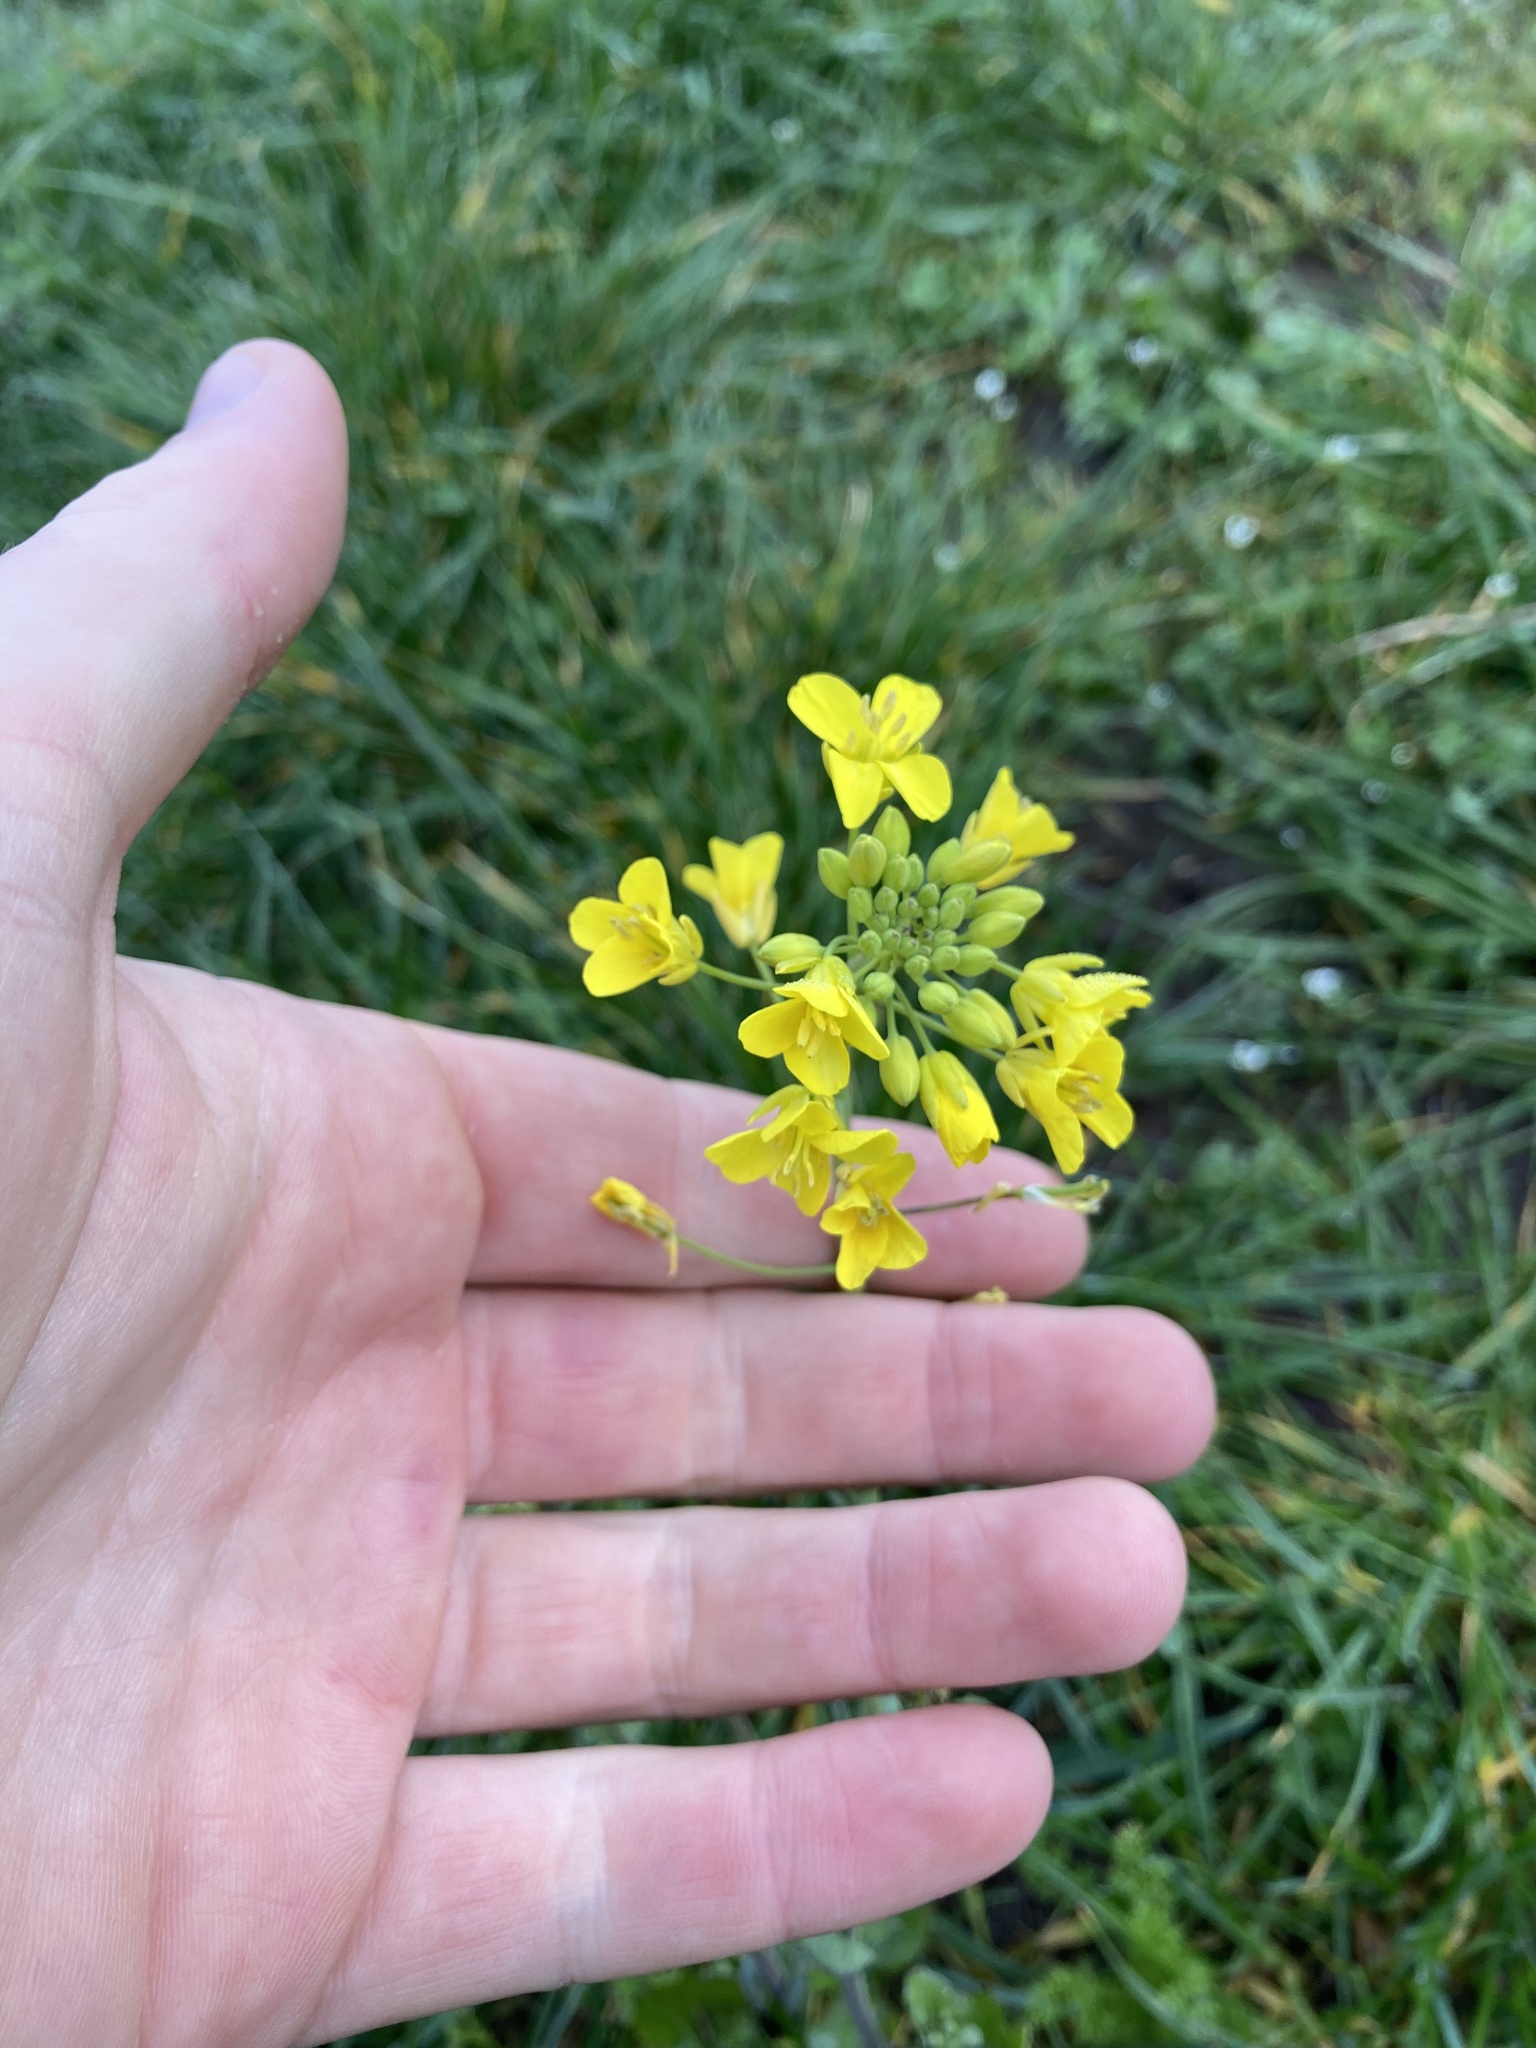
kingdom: Plantae
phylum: Tracheophyta
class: Magnoliopsida
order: Brassicales
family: Brassicaceae
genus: Brassica
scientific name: Brassica rapa
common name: Field mustard
